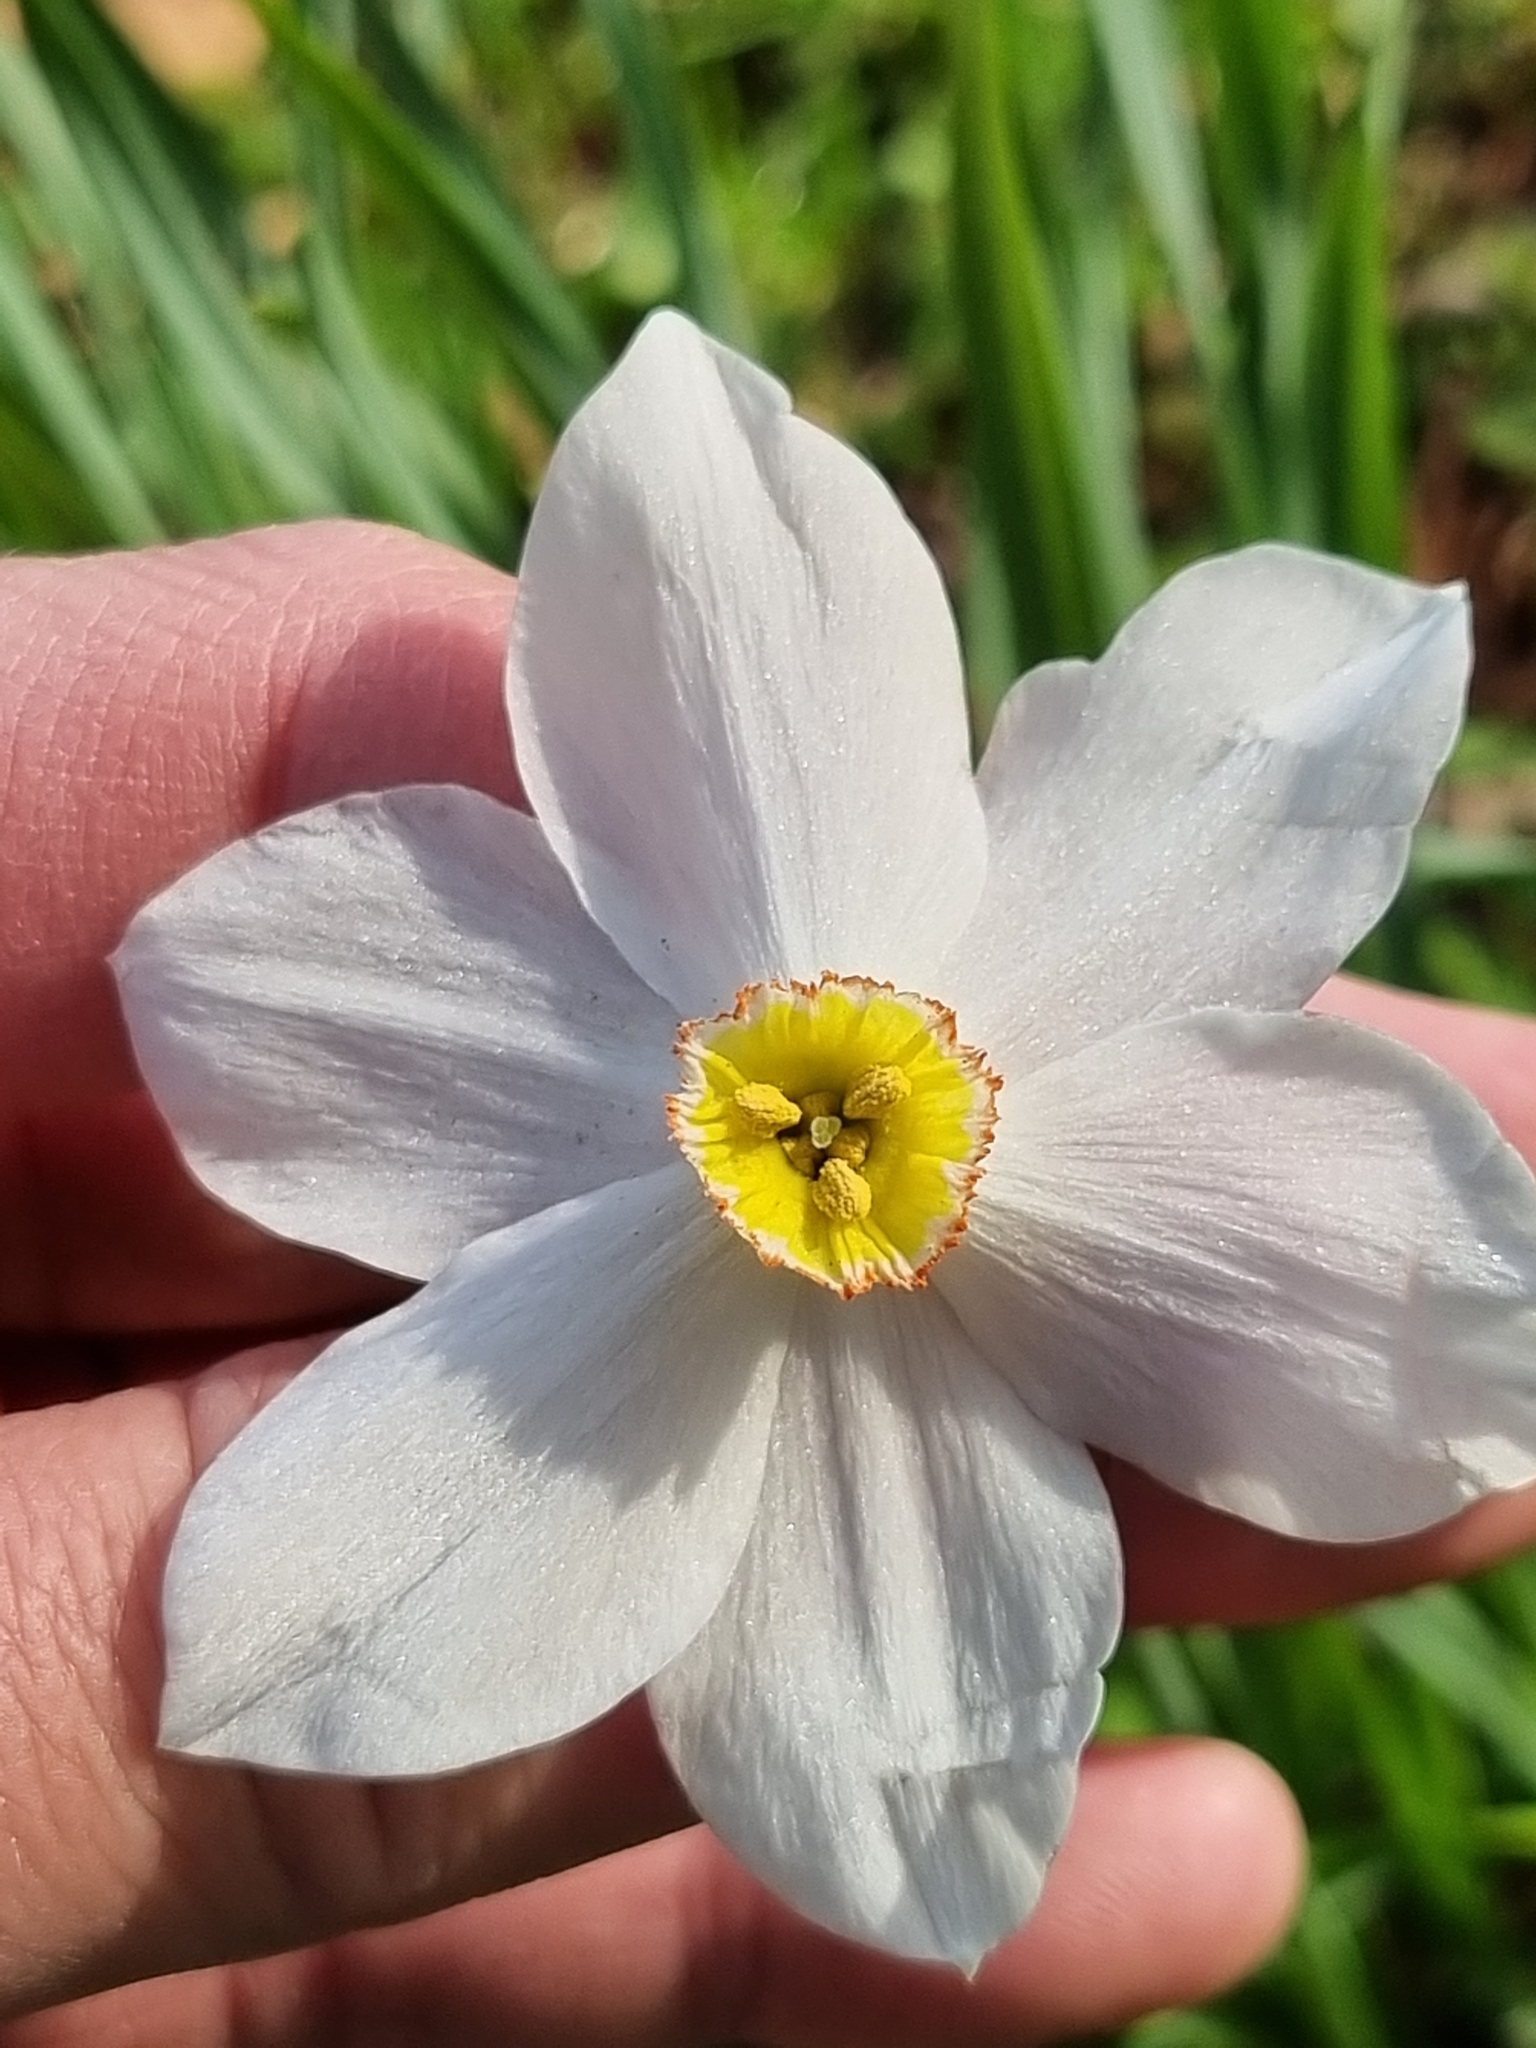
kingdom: Plantae
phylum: Tracheophyta
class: Liliopsida
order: Asparagales
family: Amaryllidaceae
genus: Narcissus
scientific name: Narcissus poeticus
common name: Pheasant's-eye daffodil
